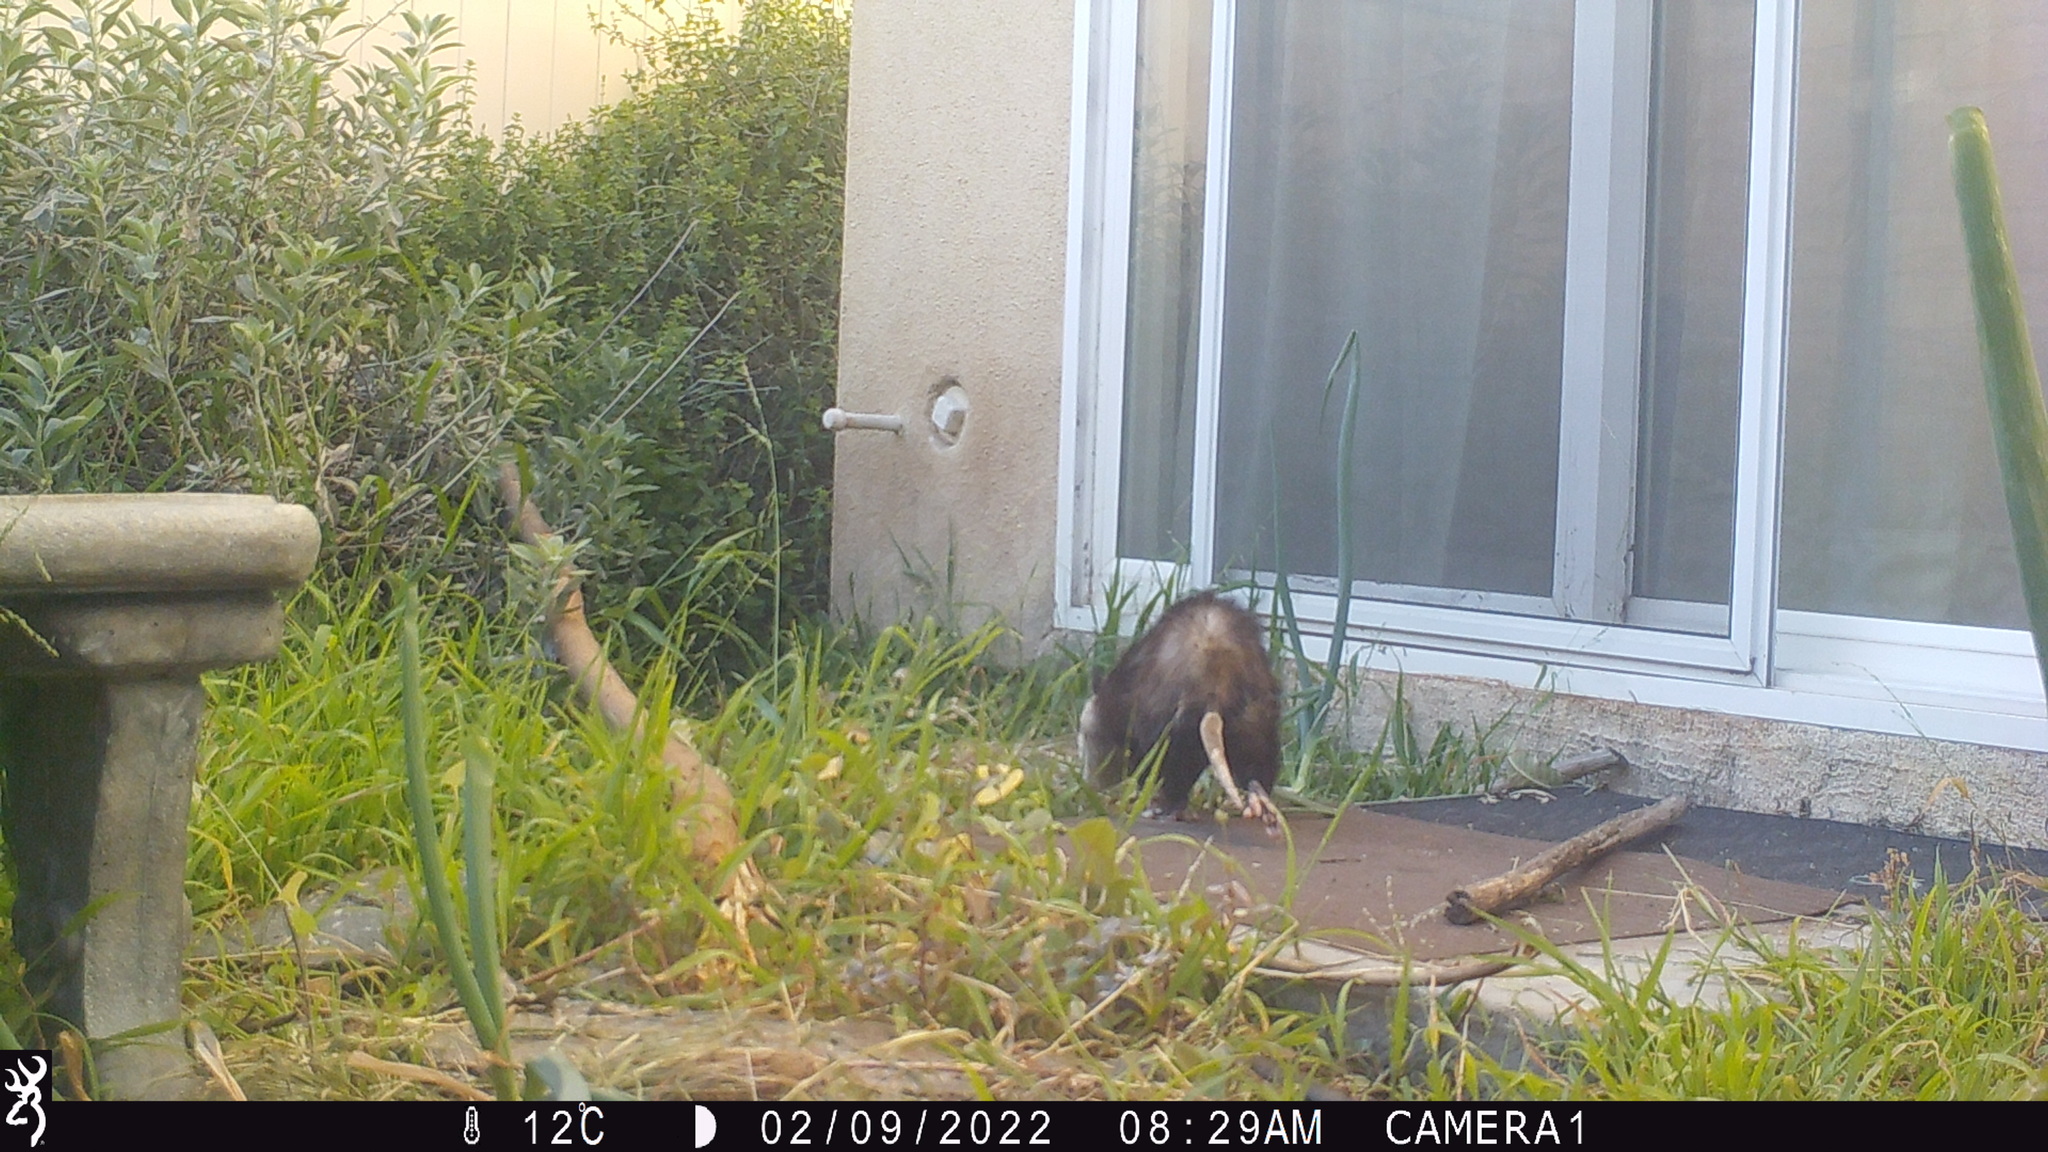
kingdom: Animalia
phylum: Chordata
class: Mammalia
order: Didelphimorphia
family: Didelphidae
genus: Didelphis
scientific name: Didelphis virginiana
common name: Virginia opossum
